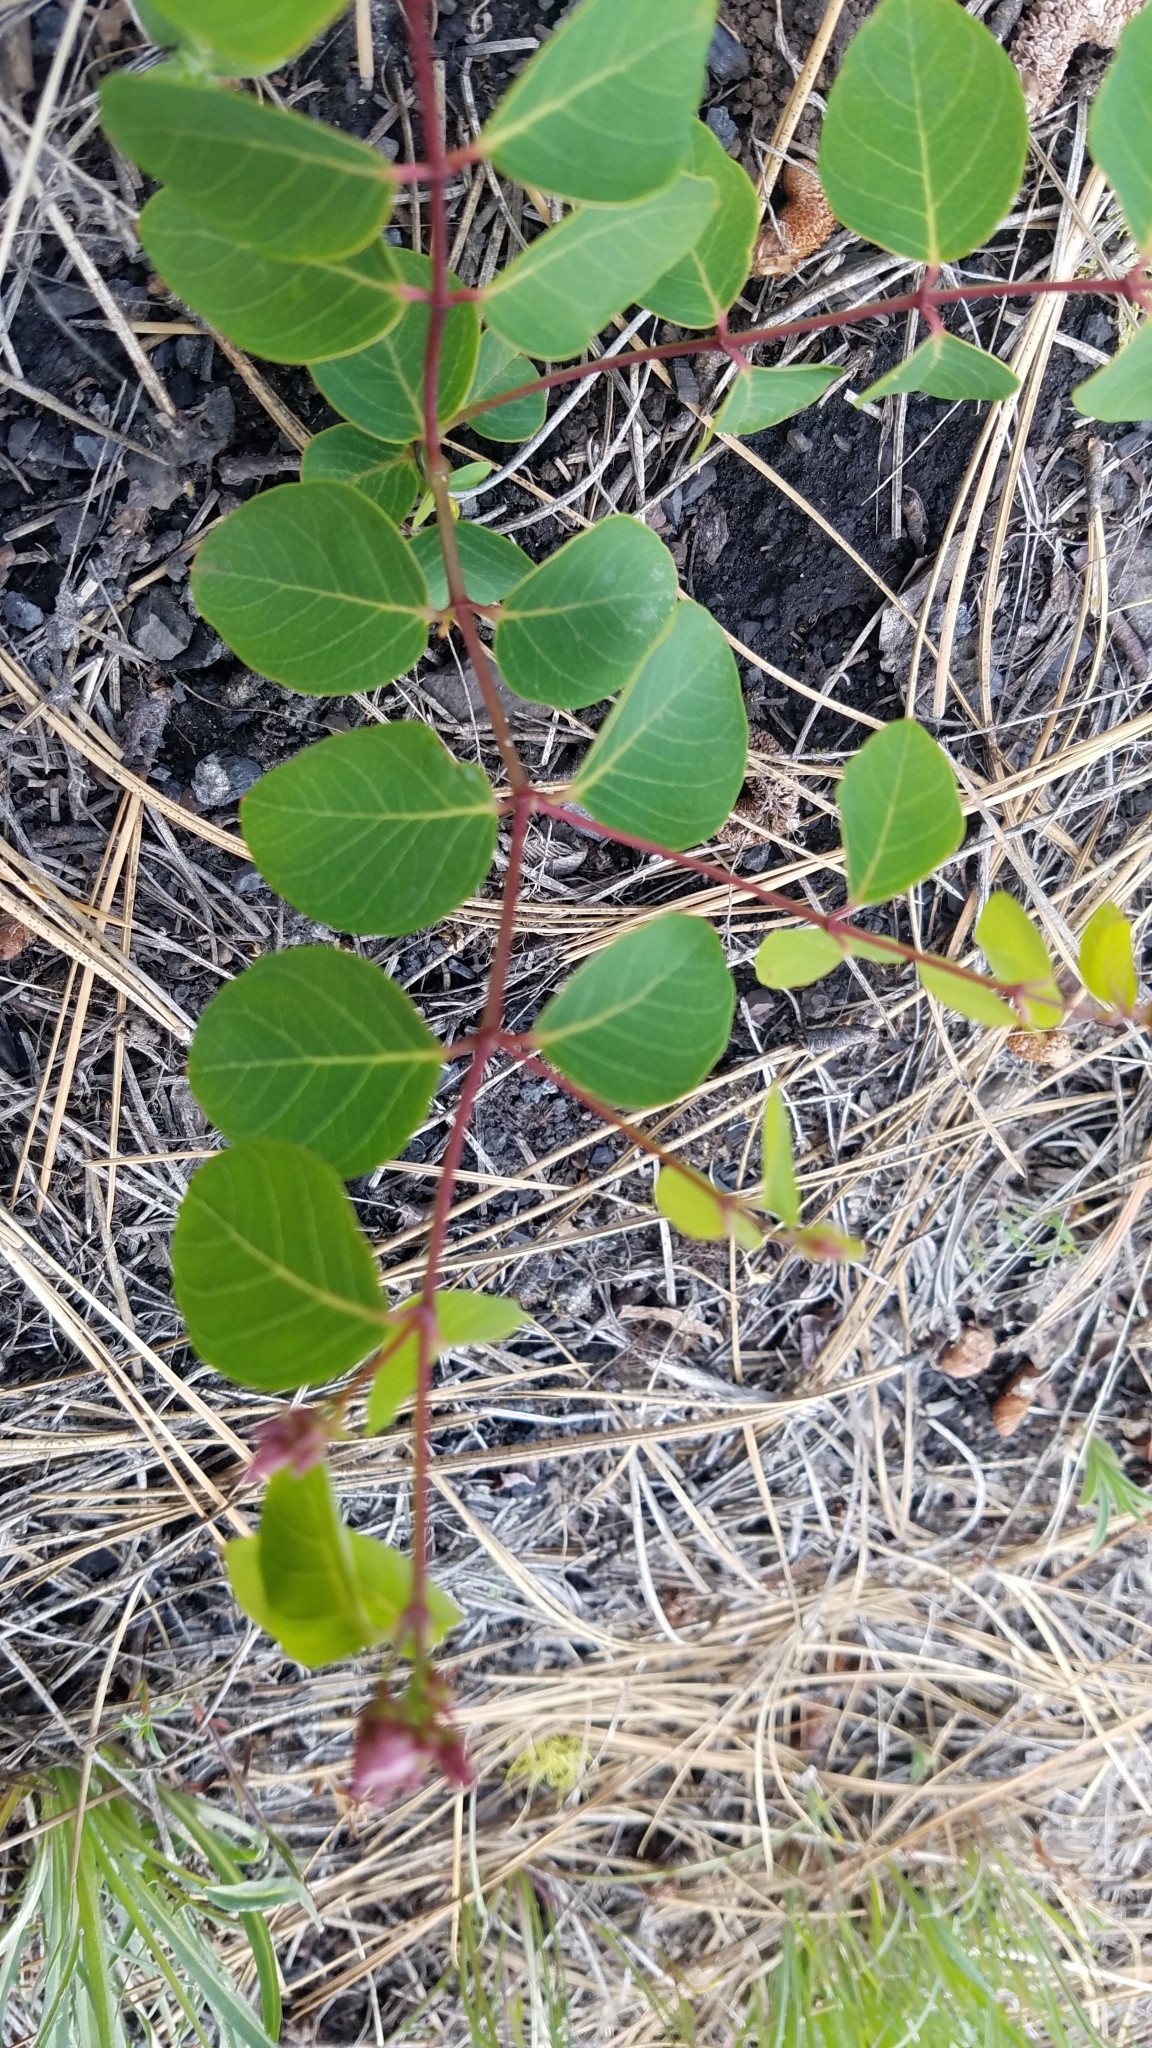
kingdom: Plantae
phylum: Tracheophyta
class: Magnoliopsida
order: Gentianales
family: Apocynaceae
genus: Apocynum
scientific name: Apocynum androsaemifolium
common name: Spreading dogbane
